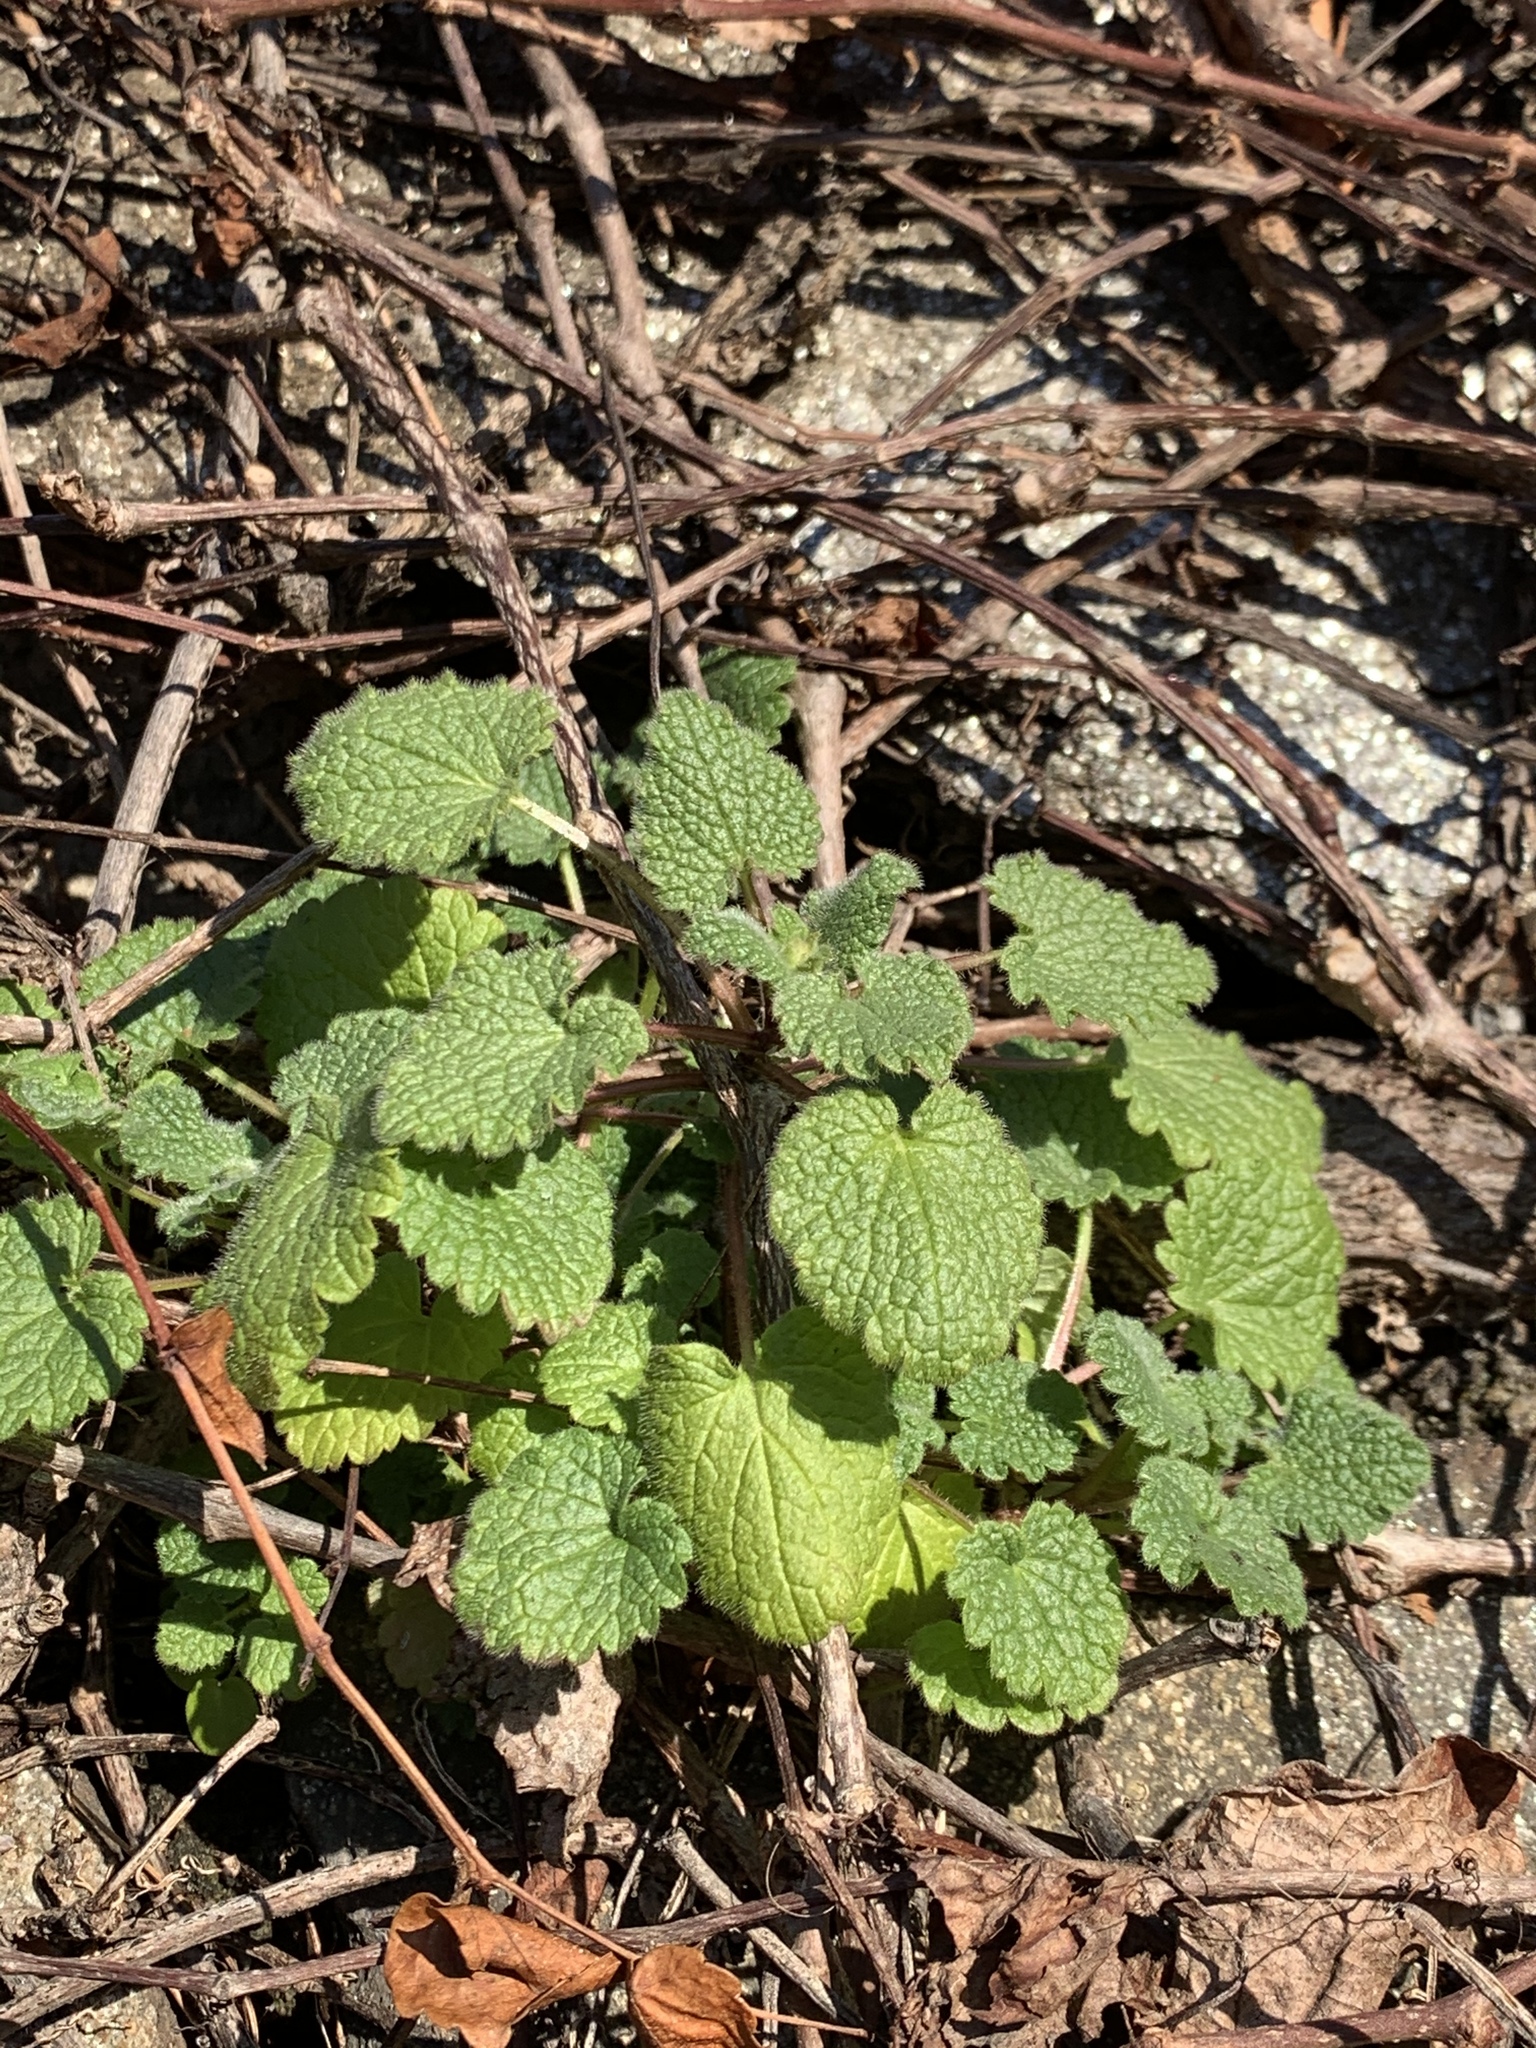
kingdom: Plantae
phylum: Tracheophyta
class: Magnoliopsida
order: Lamiales
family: Lamiaceae
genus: Lamium
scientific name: Lamium purpureum
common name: Red dead-nettle
